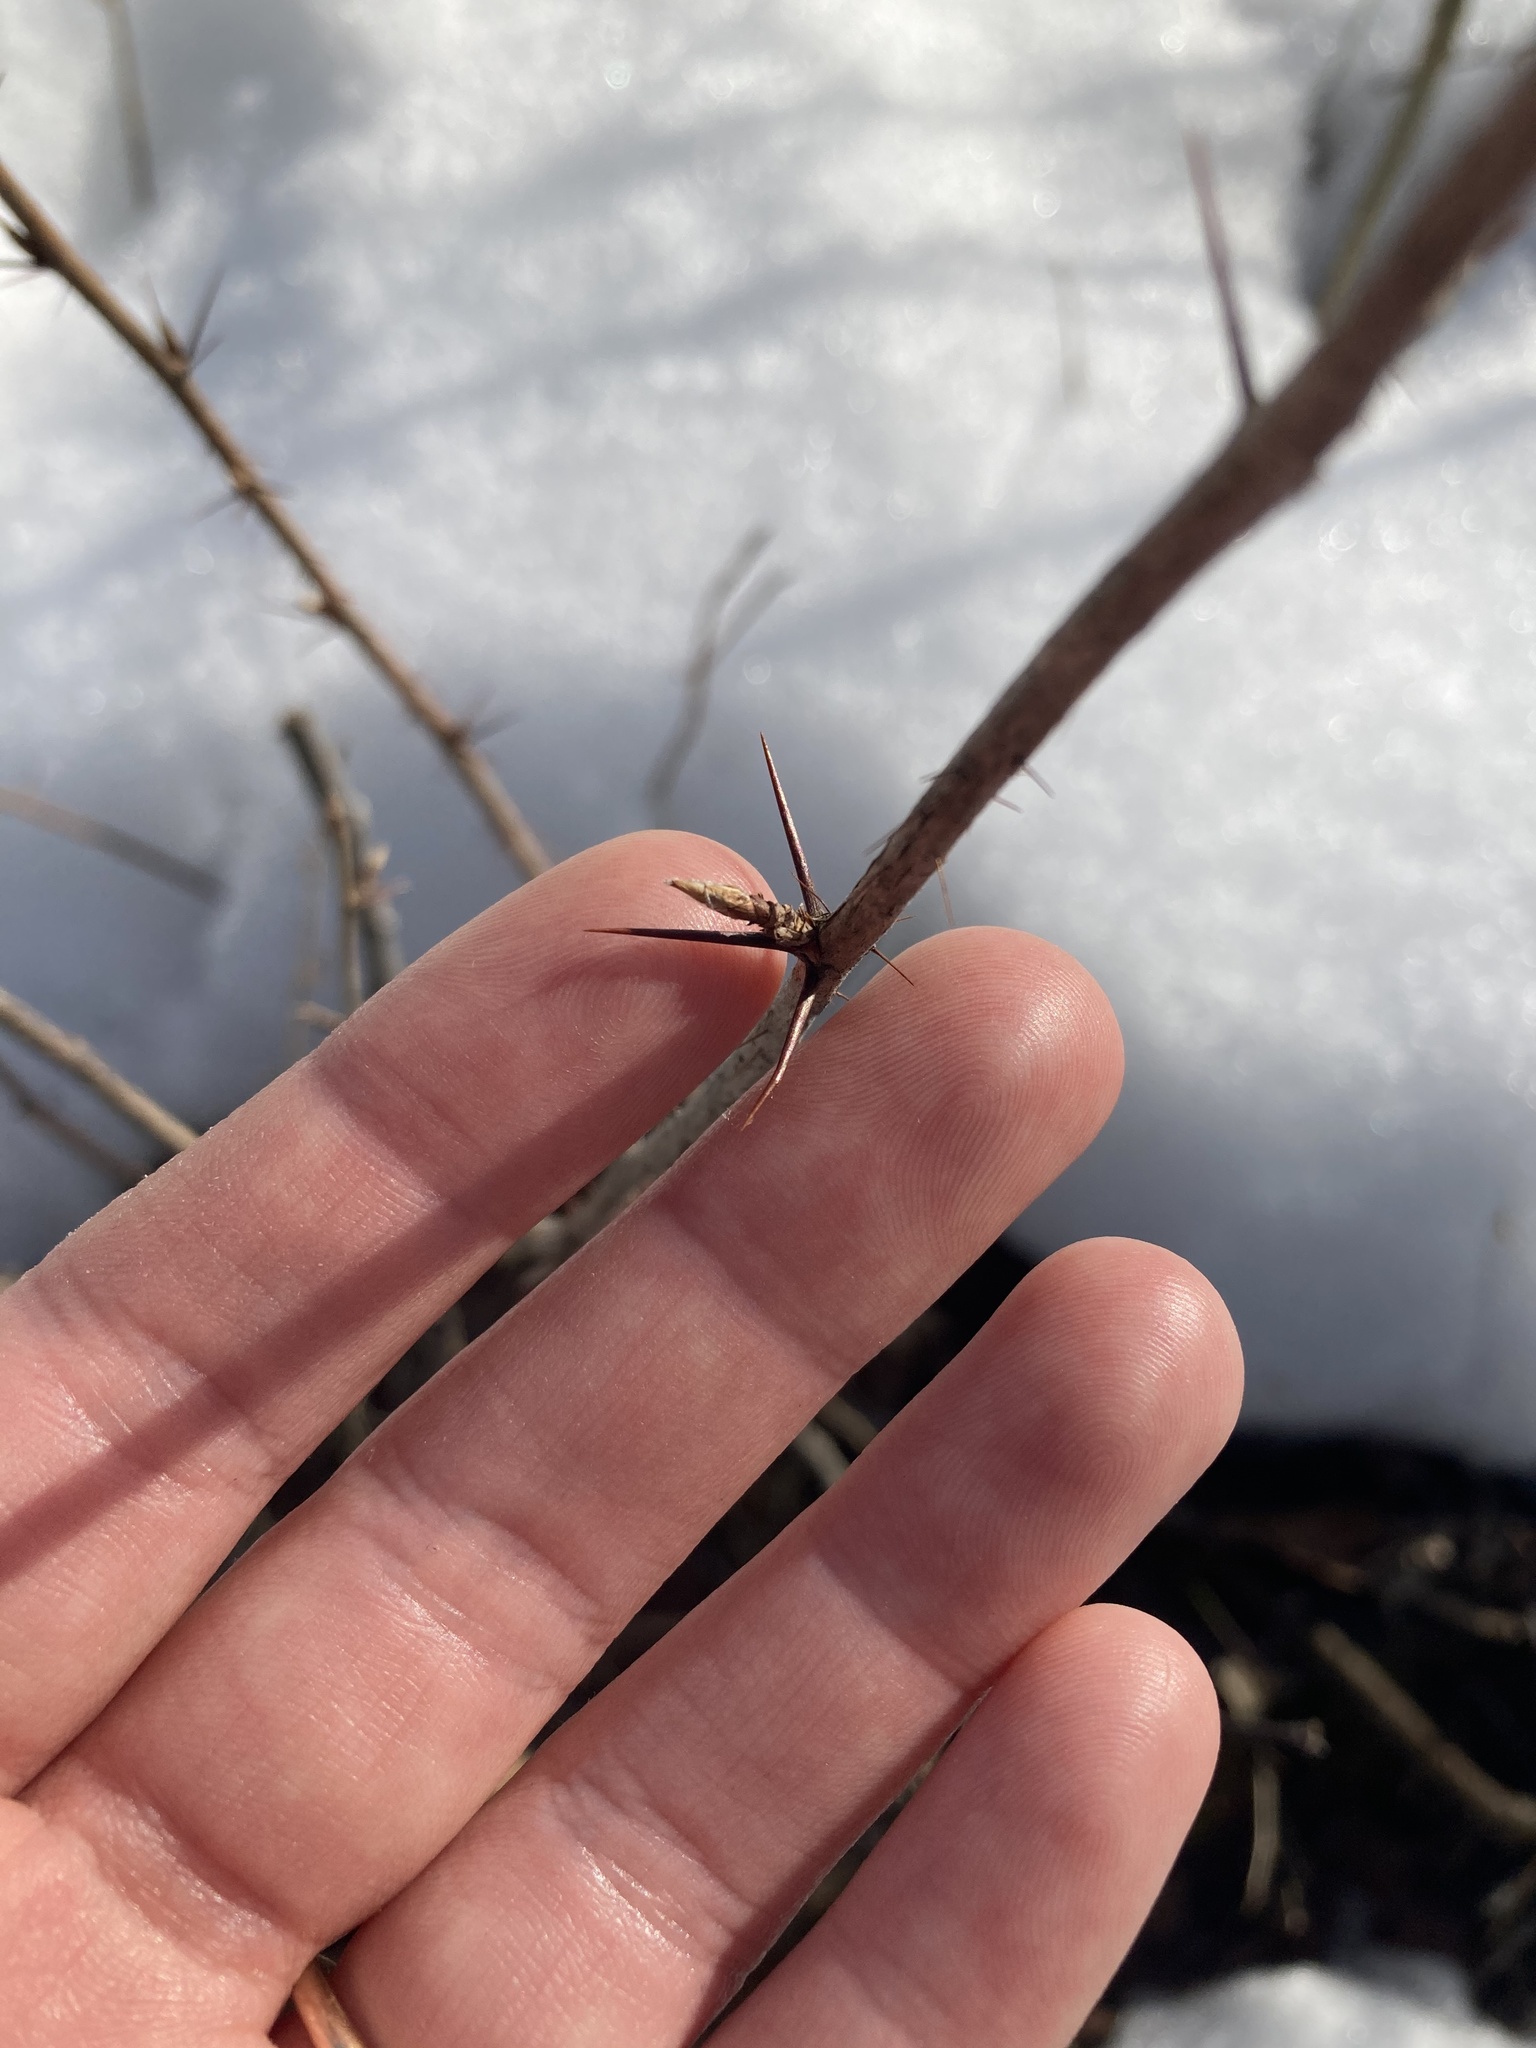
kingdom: Plantae
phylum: Tracheophyta
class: Magnoliopsida
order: Saxifragales
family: Grossulariaceae
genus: Ribes
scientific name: Ribes cynosbati
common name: American gooseberry
